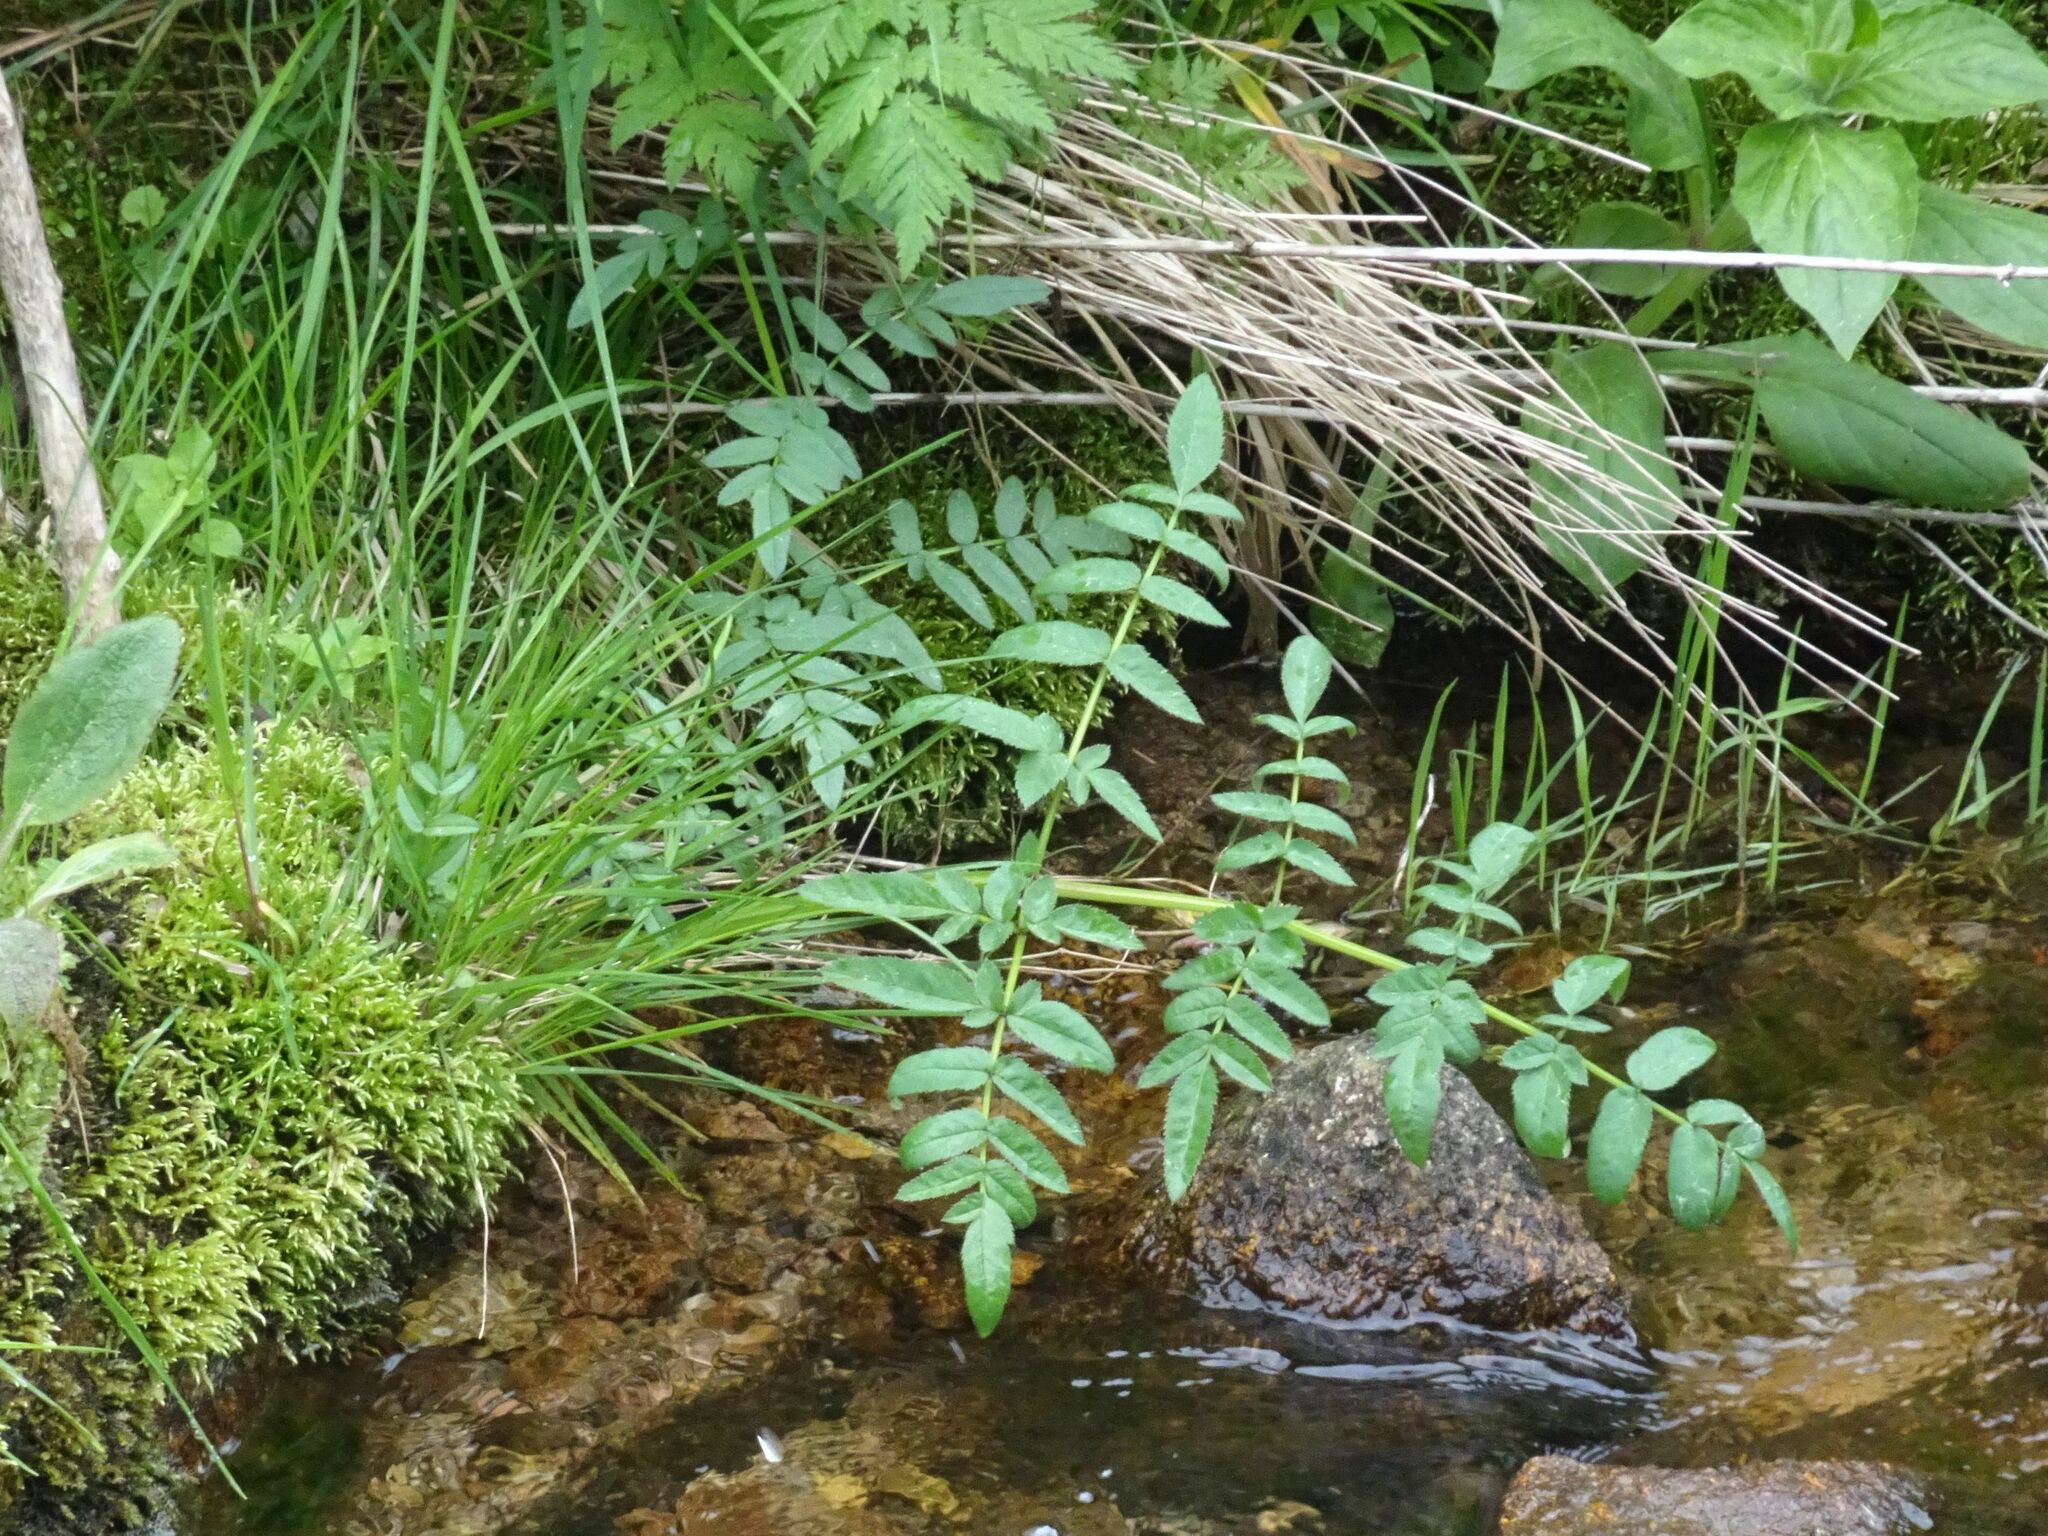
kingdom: Plantae
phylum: Tracheophyta
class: Magnoliopsida
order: Apiales
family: Apiaceae
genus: Angelica
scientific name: Angelica sylvestris
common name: Wild angelica
